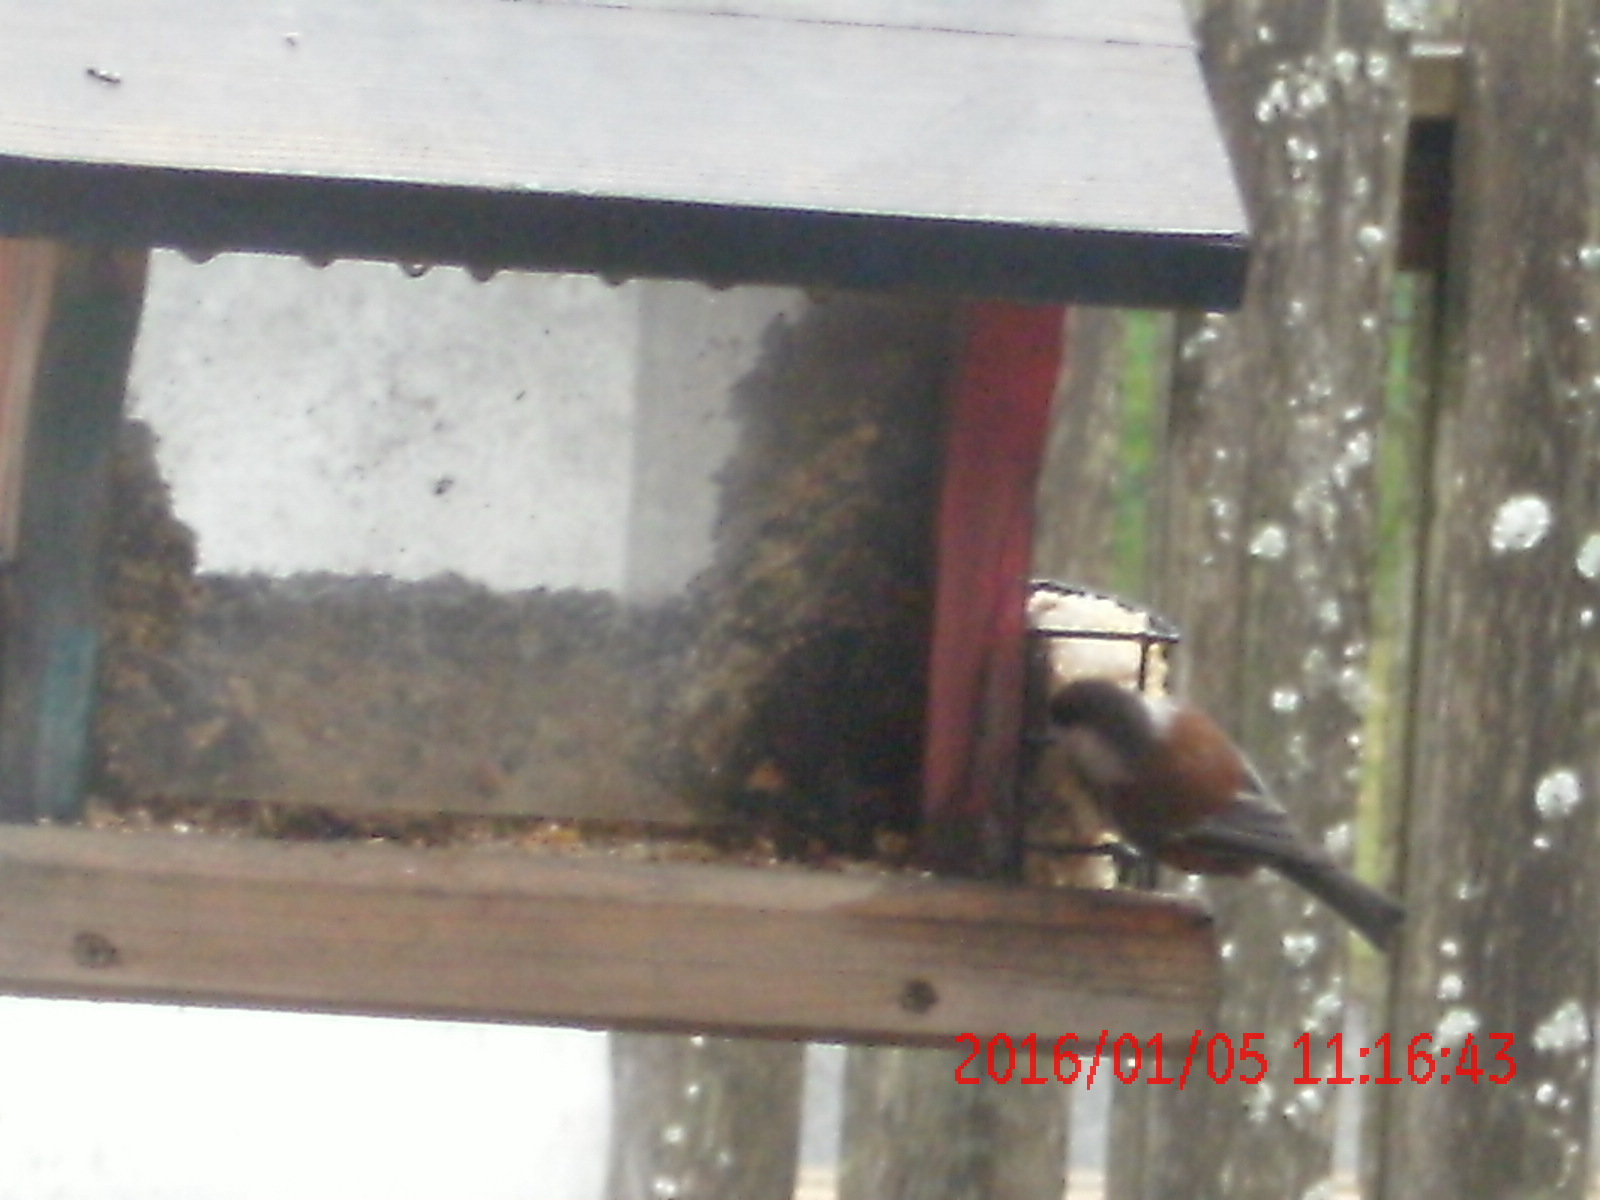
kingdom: Animalia
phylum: Chordata
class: Aves
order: Passeriformes
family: Paridae
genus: Poecile
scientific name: Poecile rufescens
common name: Chestnut-backed chickadee
